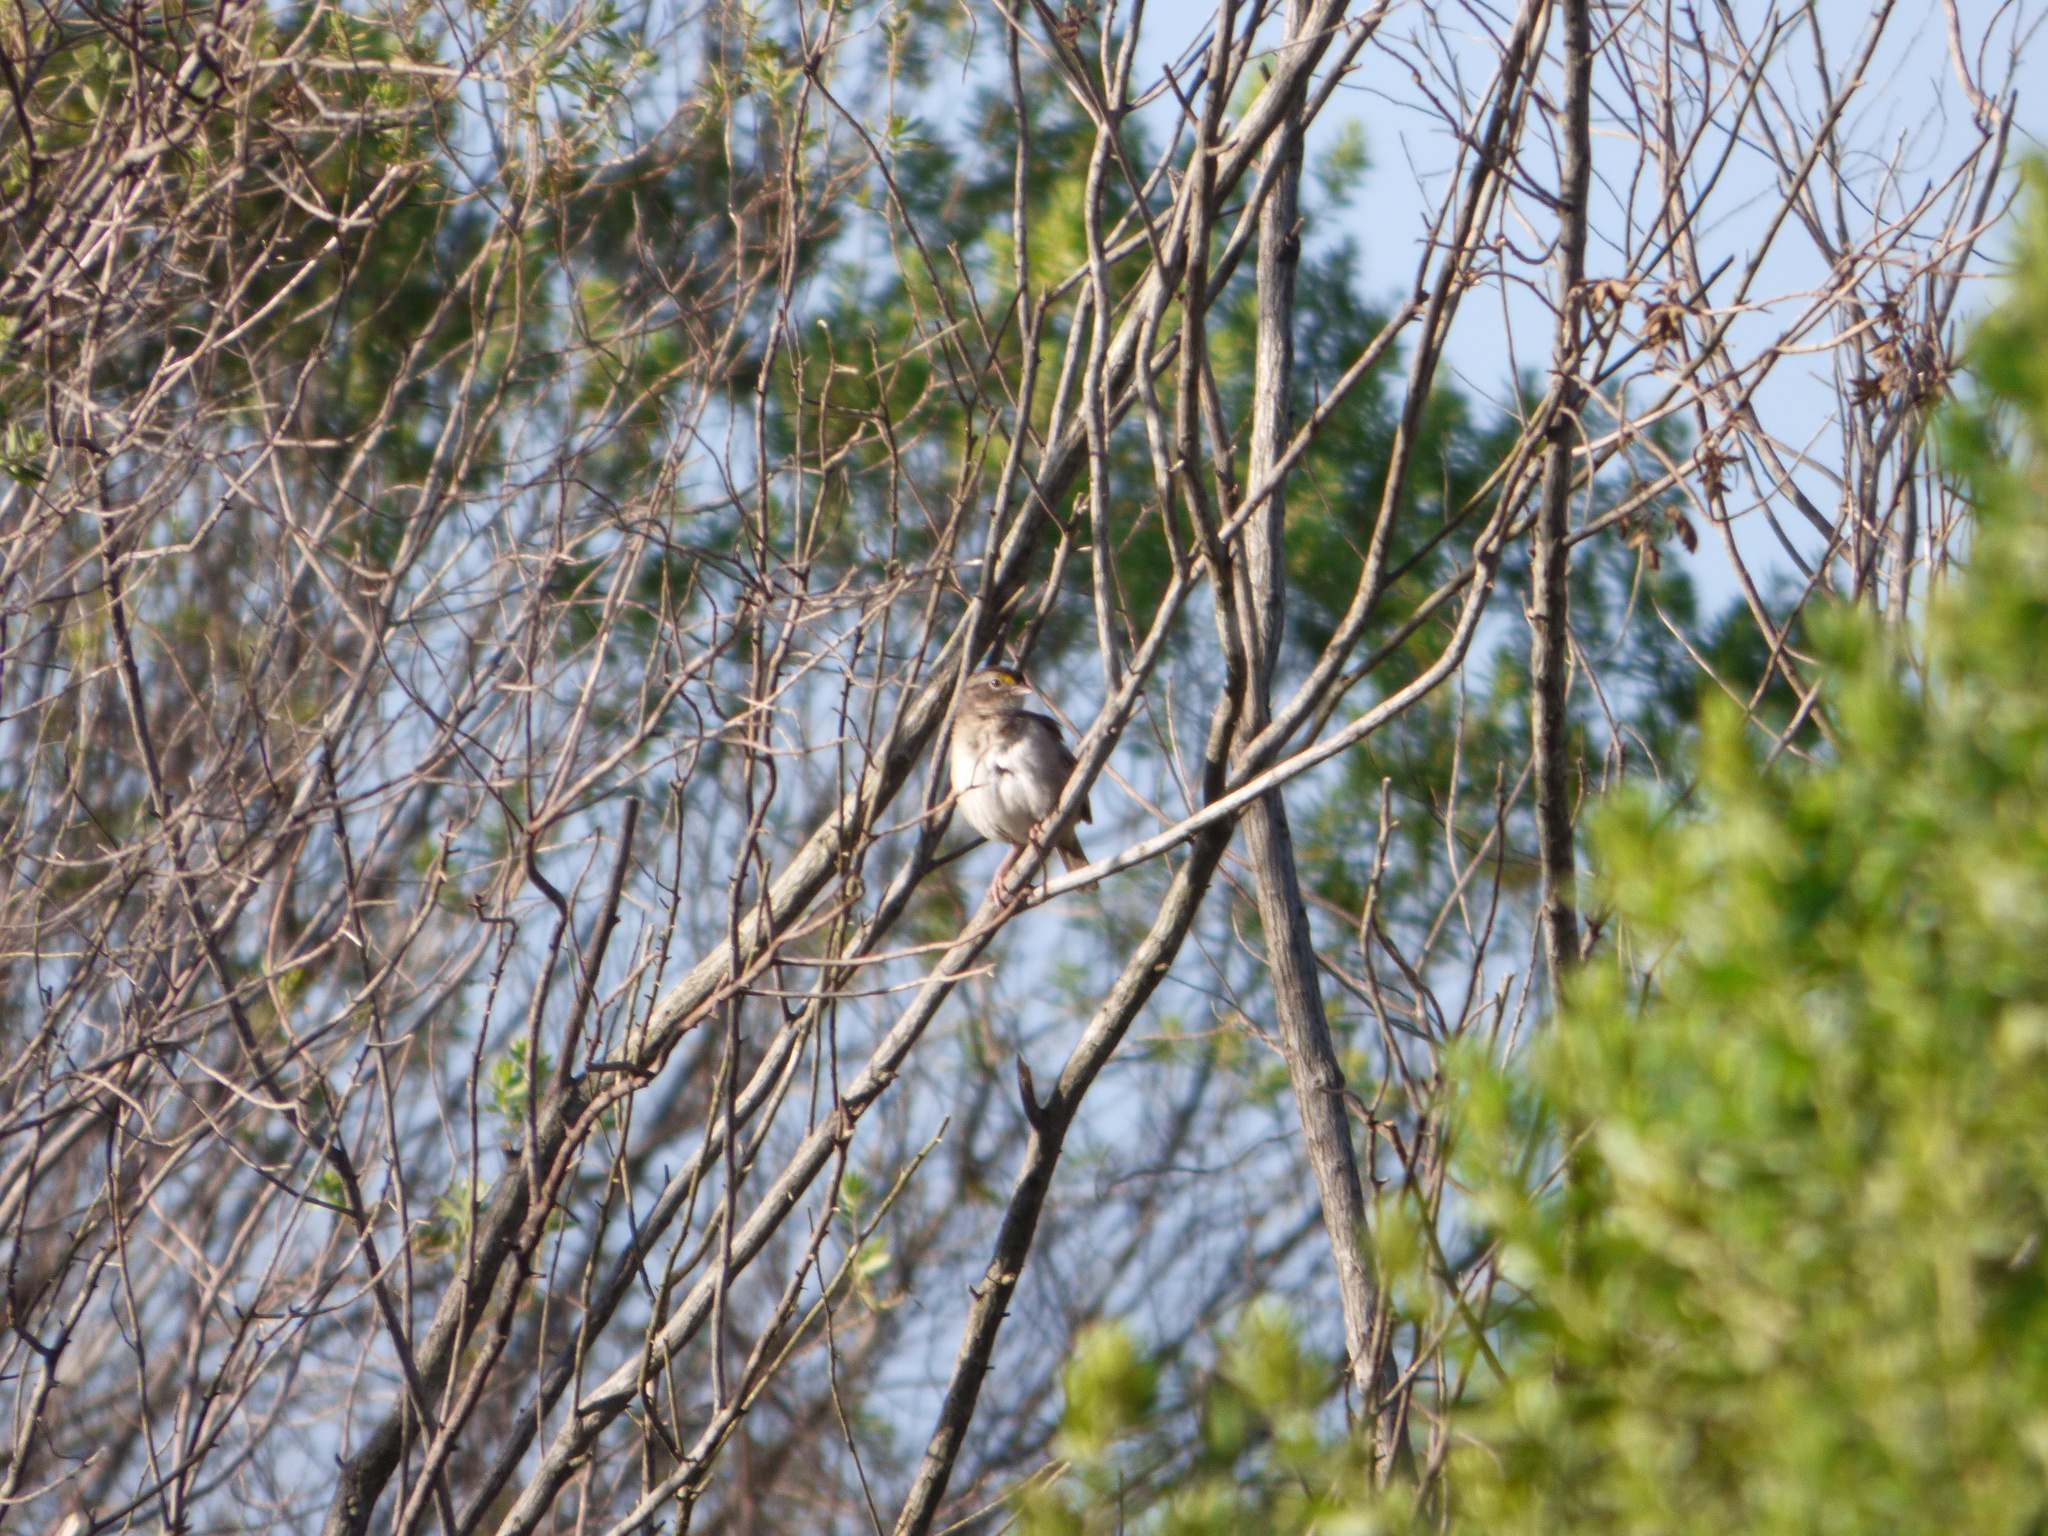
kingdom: Animalia
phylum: Chordata
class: Aves
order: Passeriformes
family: Passerellidae
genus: Ammodramus
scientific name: Ammodramus humeralis
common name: Grassland sparrow
